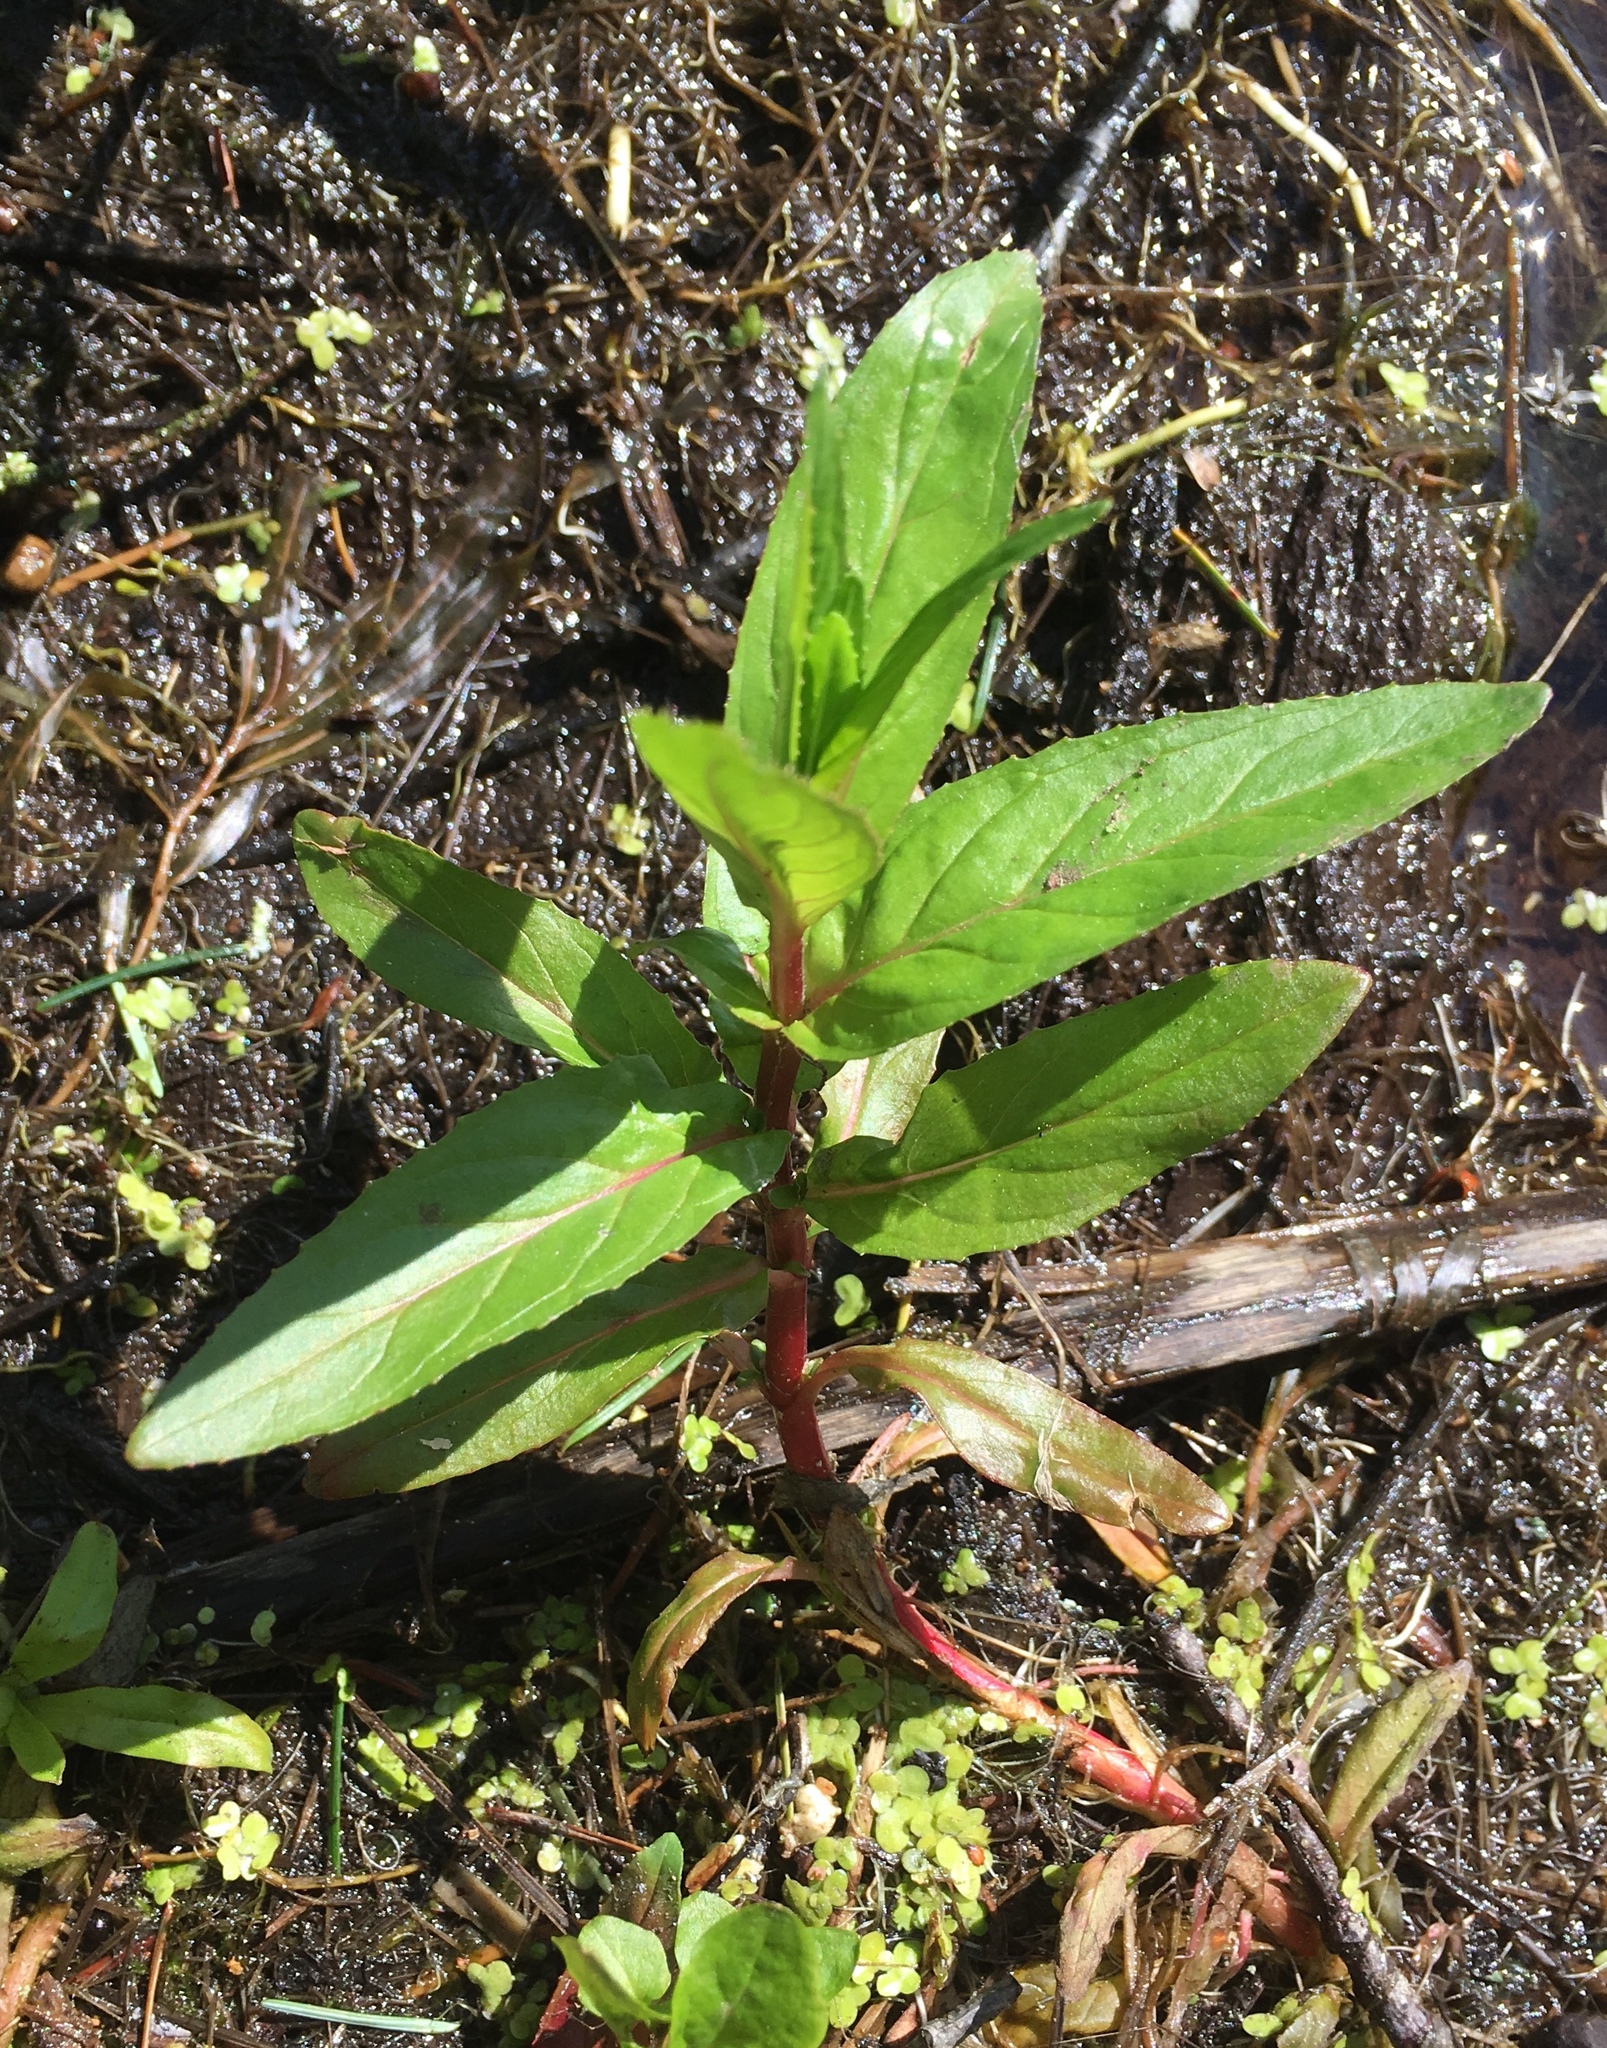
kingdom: Plantae
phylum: Tracheophyta
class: Magnoliopsida
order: Myrtales
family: Onagraceae
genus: Epilobium
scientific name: Epilobium ciliatum
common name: American willowherb
